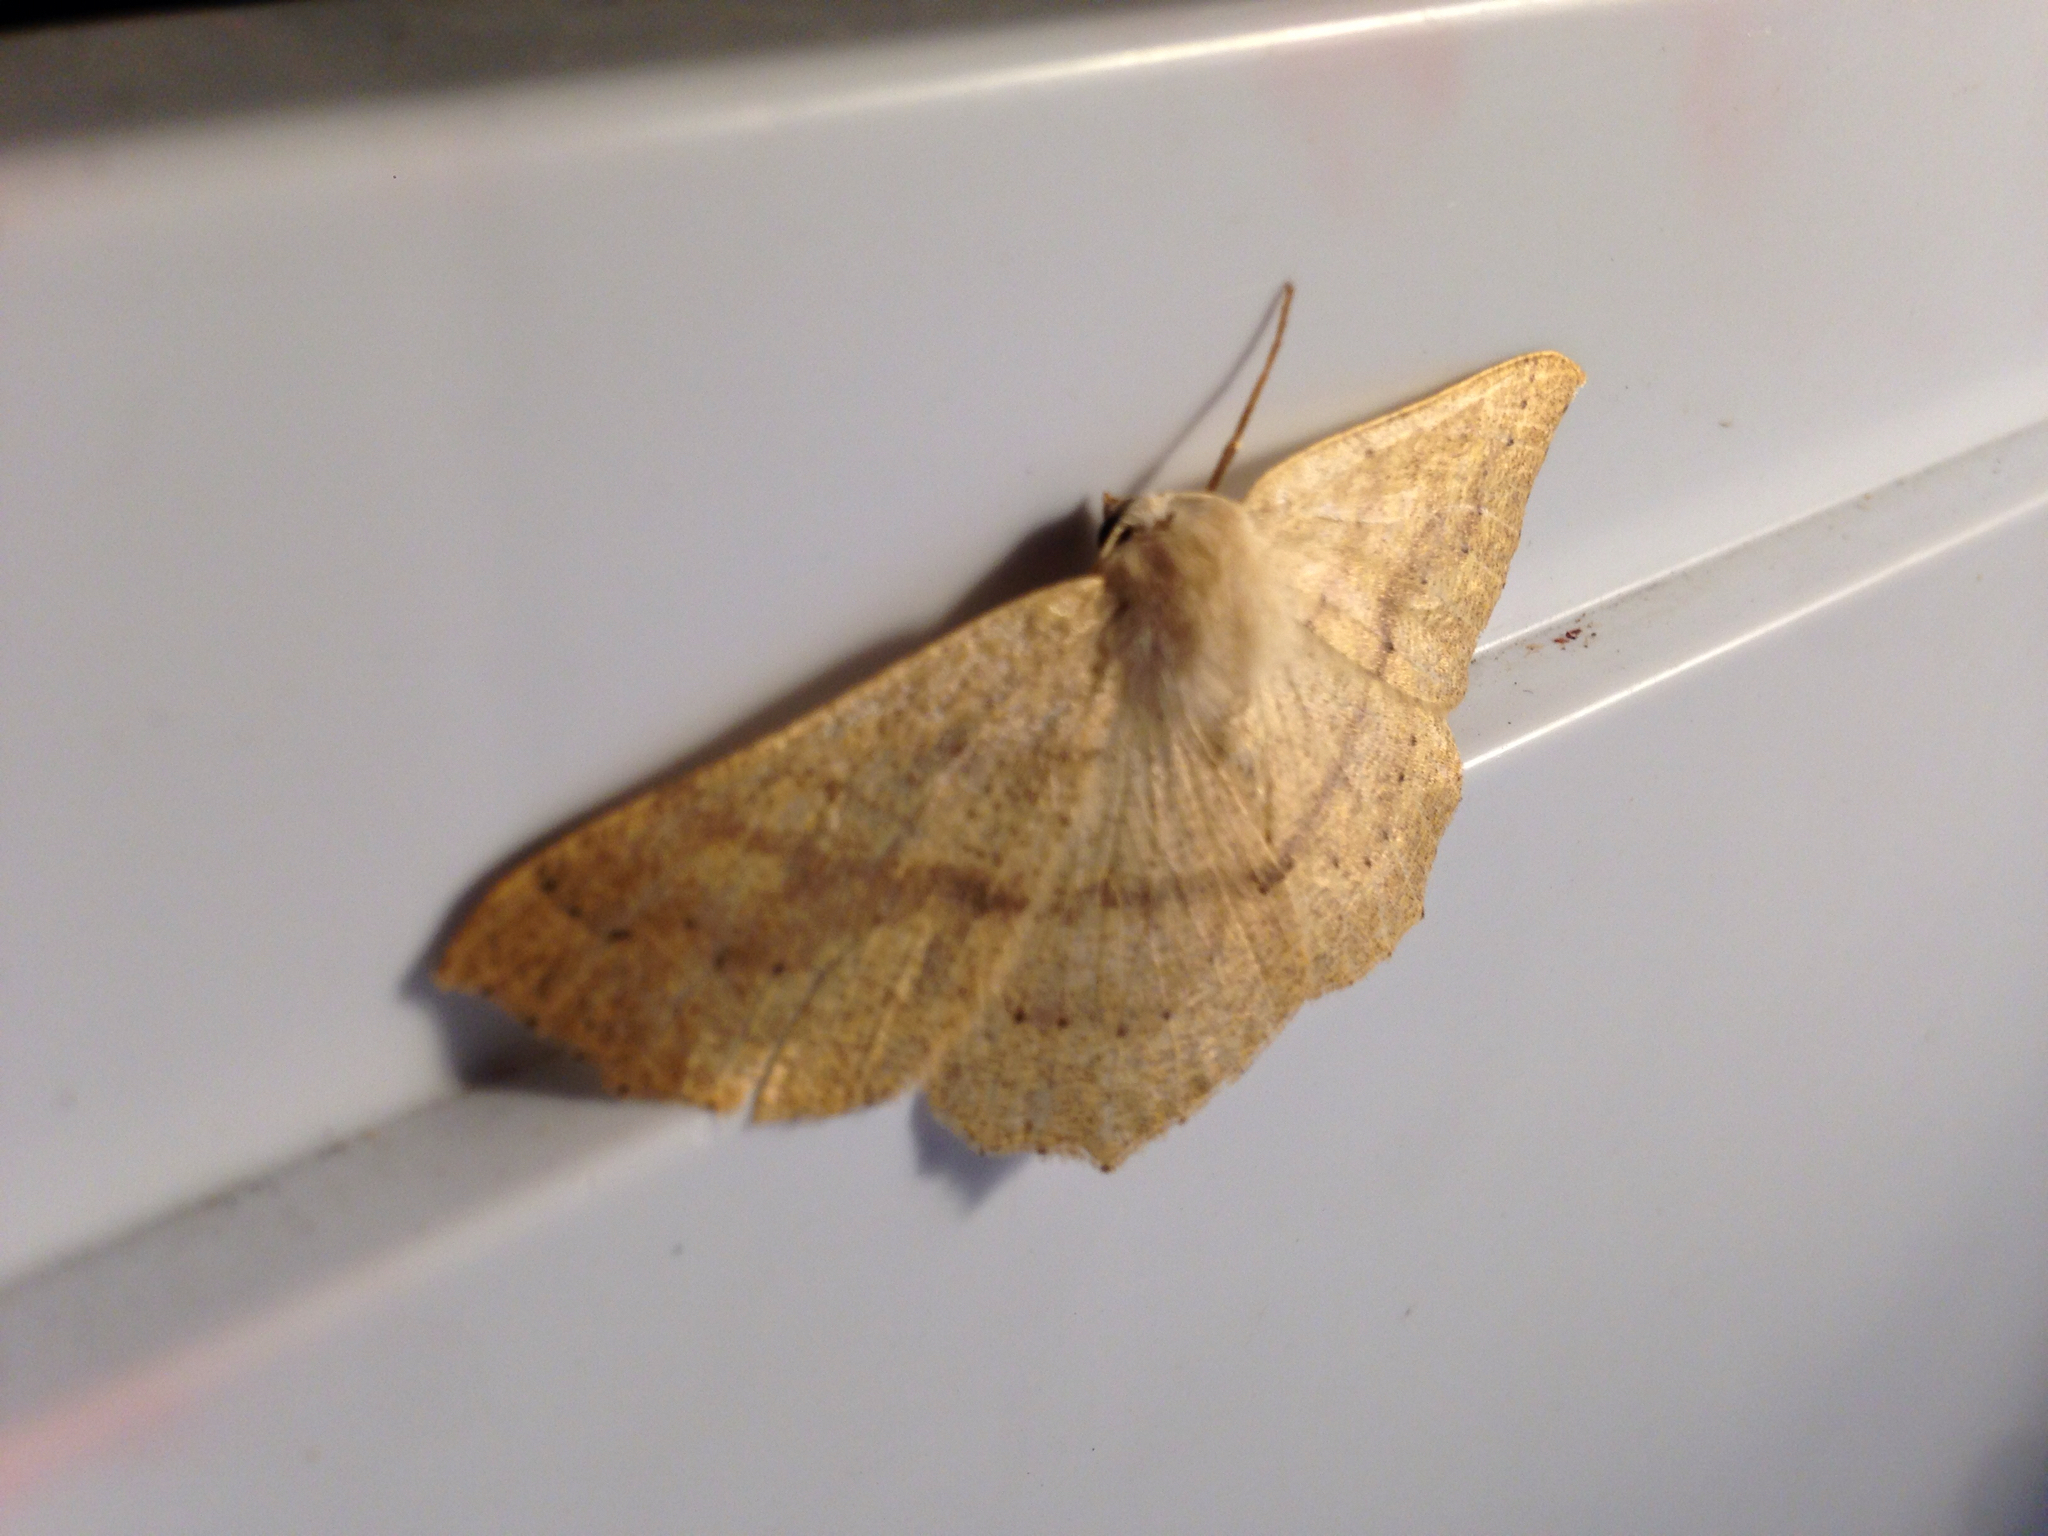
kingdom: Animalia
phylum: Arthropoda
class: Insecta
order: Lepidoptera
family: Geometridae
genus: Sabulodes
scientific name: Sabulodes aegrotata
